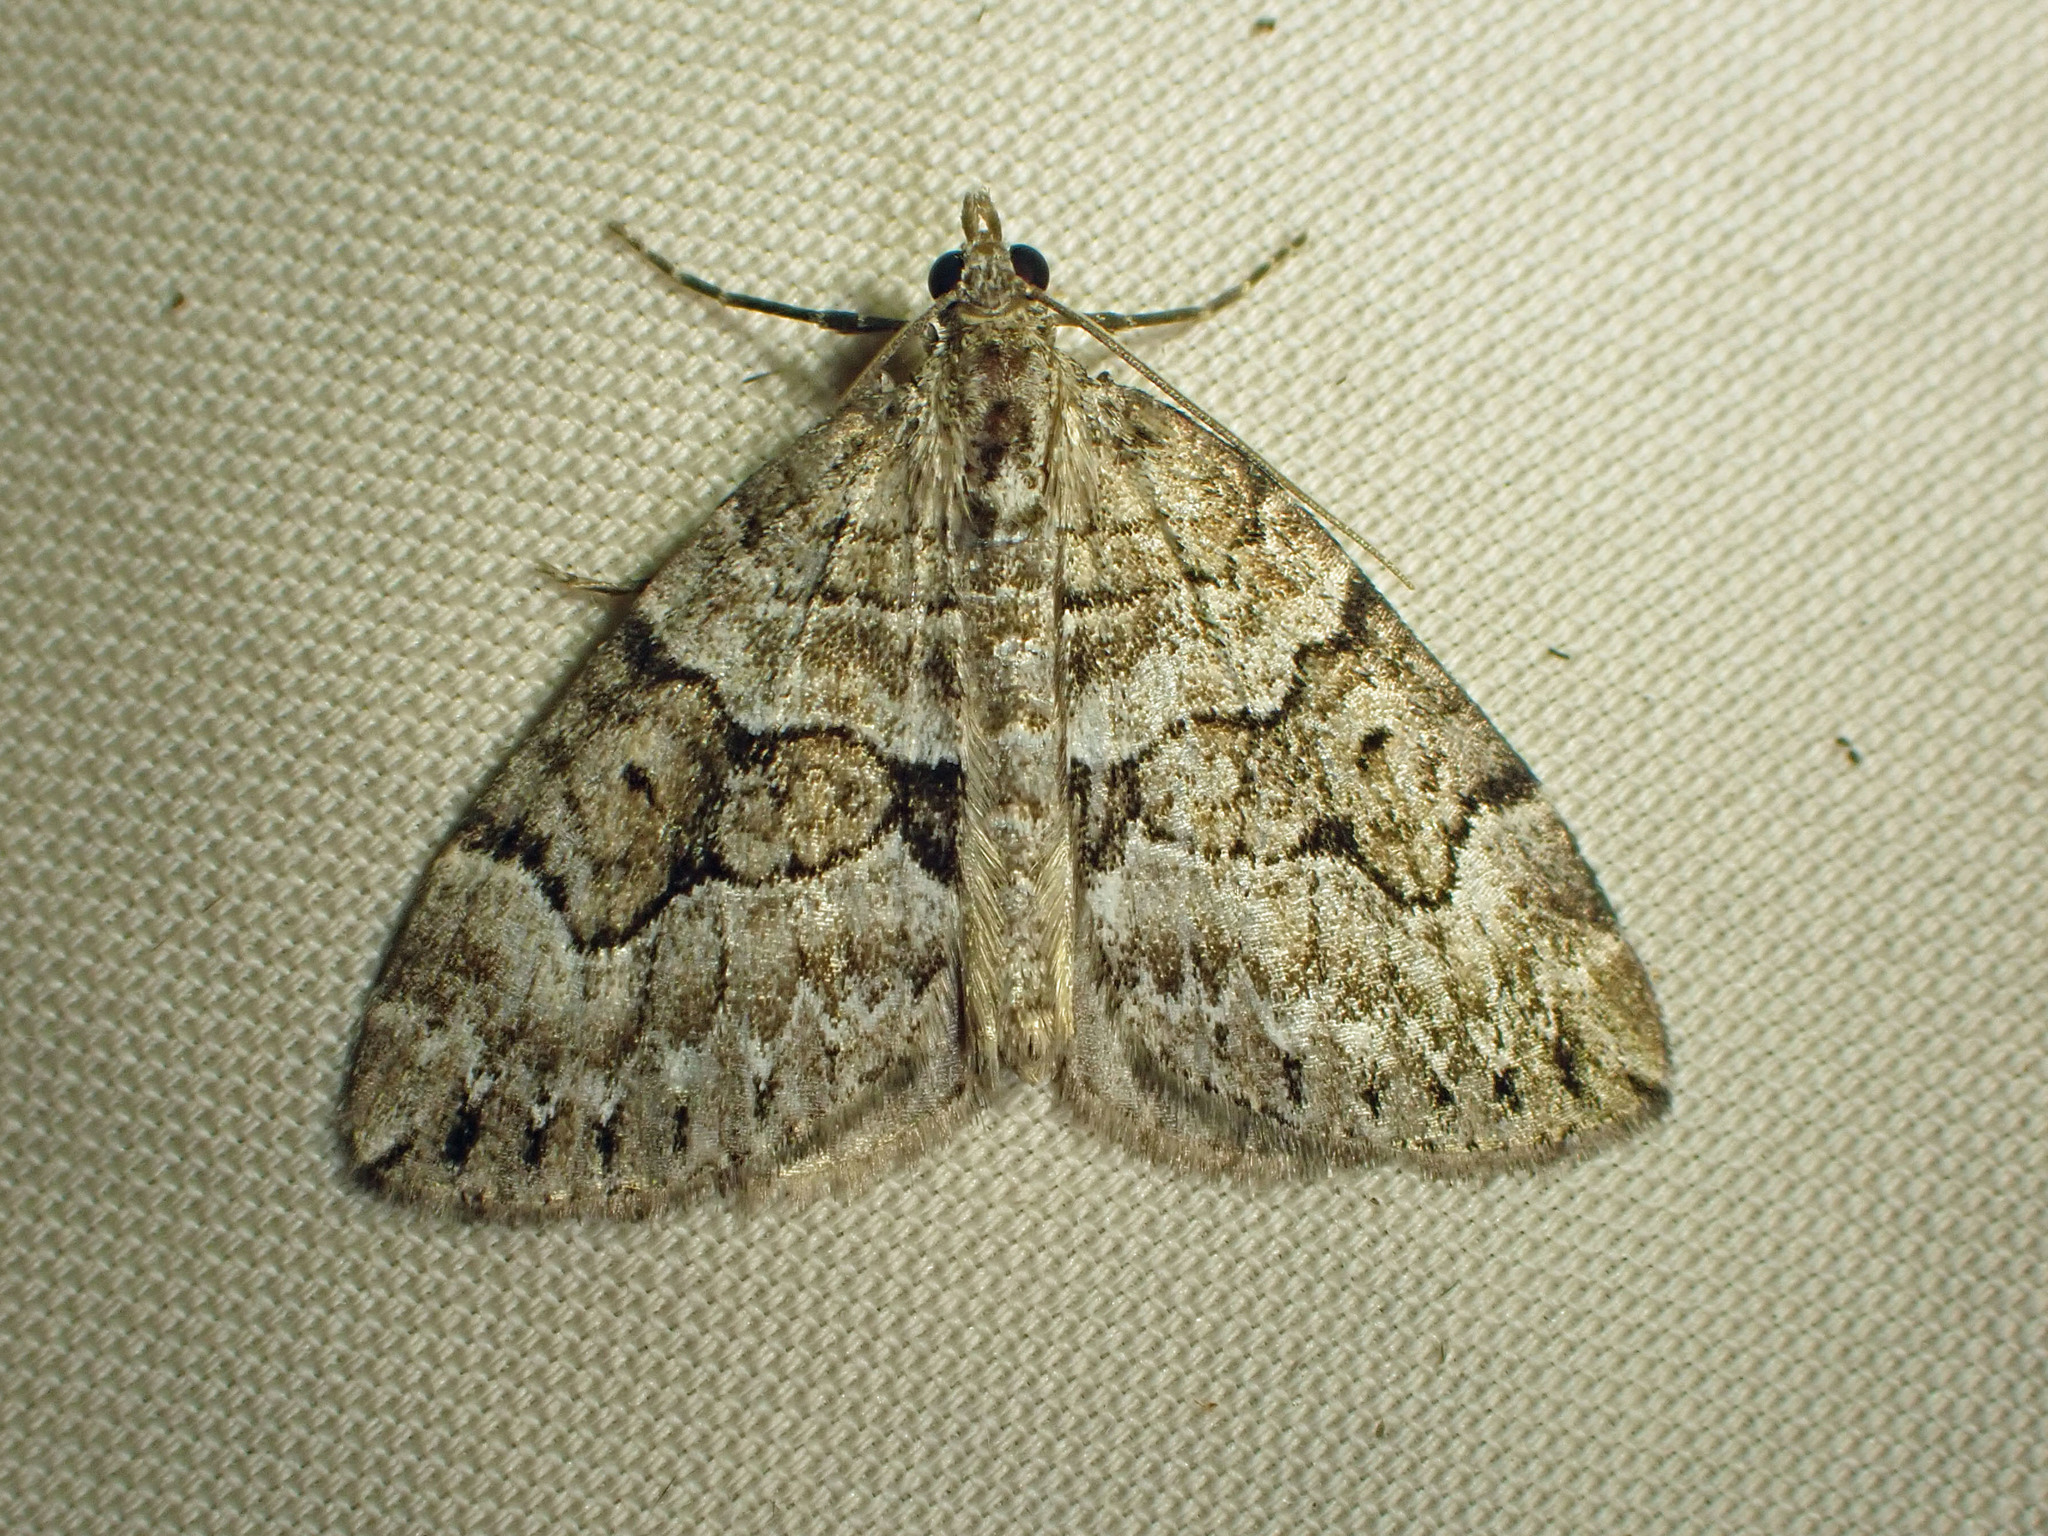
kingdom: Animalia
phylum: Arthropoda
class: Insecta
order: Lepidoptera
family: Geometridae
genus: Thera
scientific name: Thera contractata
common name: Contracted spanworm
